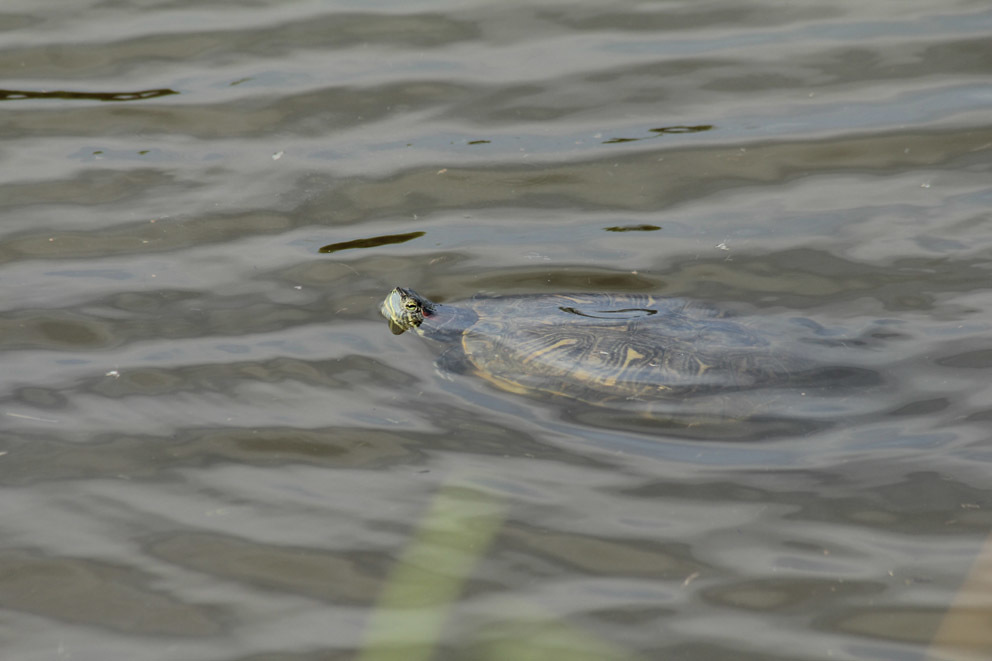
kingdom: Animalia
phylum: Chordata
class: Testudines
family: Emydidae
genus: Trachemys
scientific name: Trachemys scripta
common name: Slider
